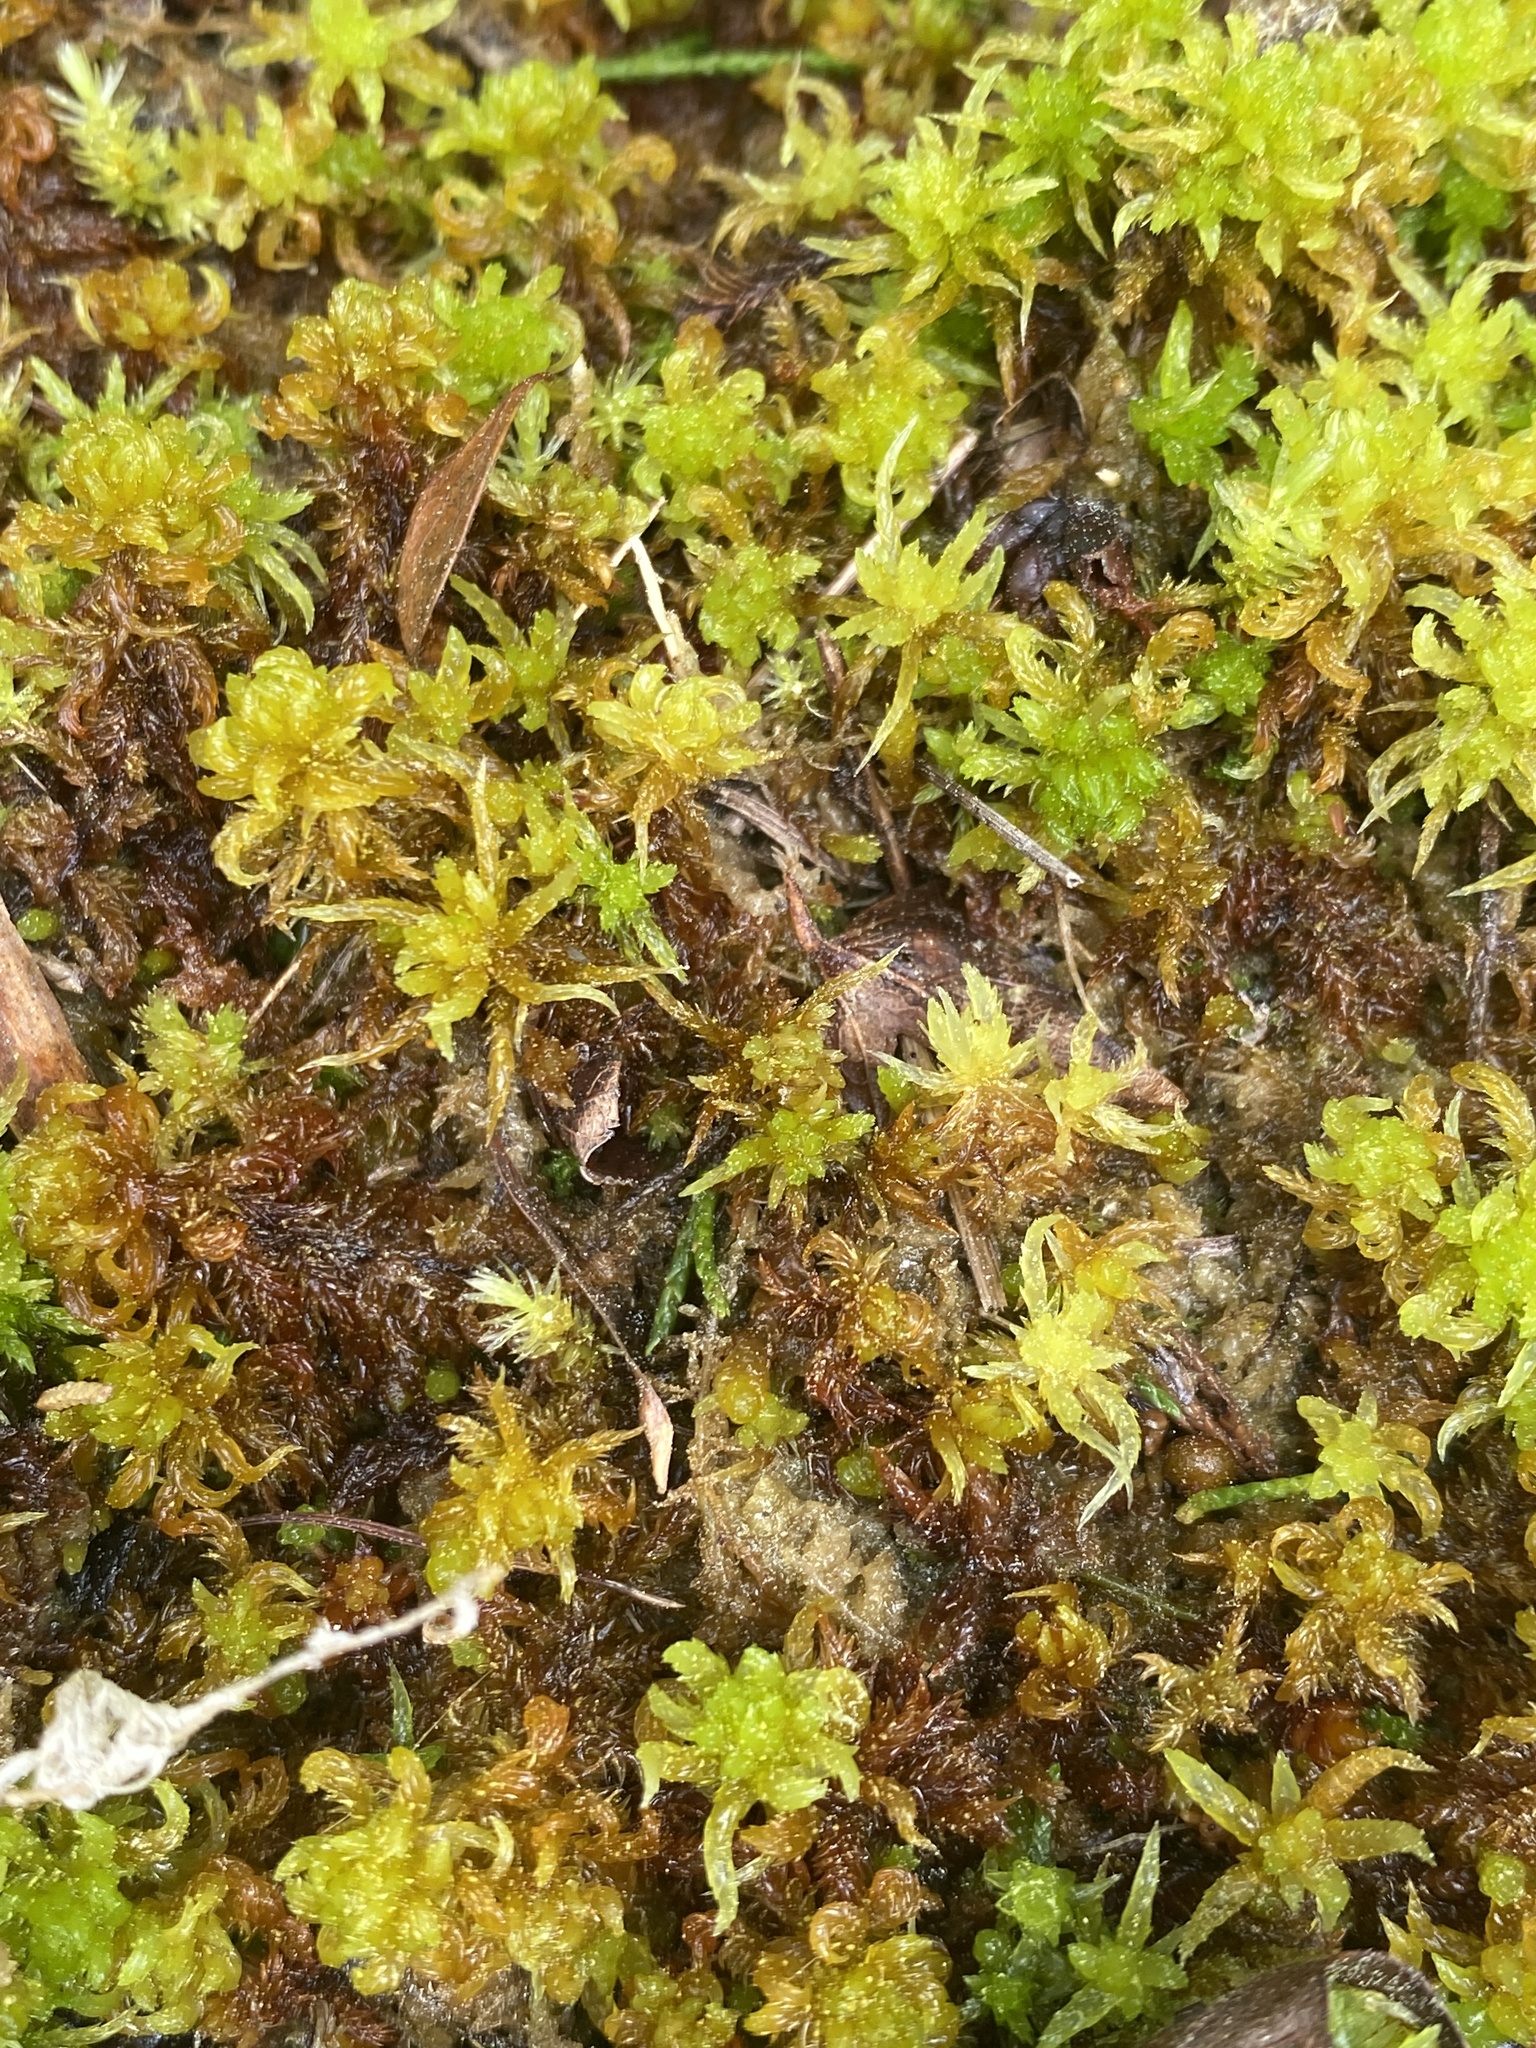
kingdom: Plantae
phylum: Bryophyta
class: Sphagnopsida
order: Sphagnales
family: Sphagnaceae
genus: Sphagnum
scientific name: Sphagnum lescurii
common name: Lesquereux's peat moss
